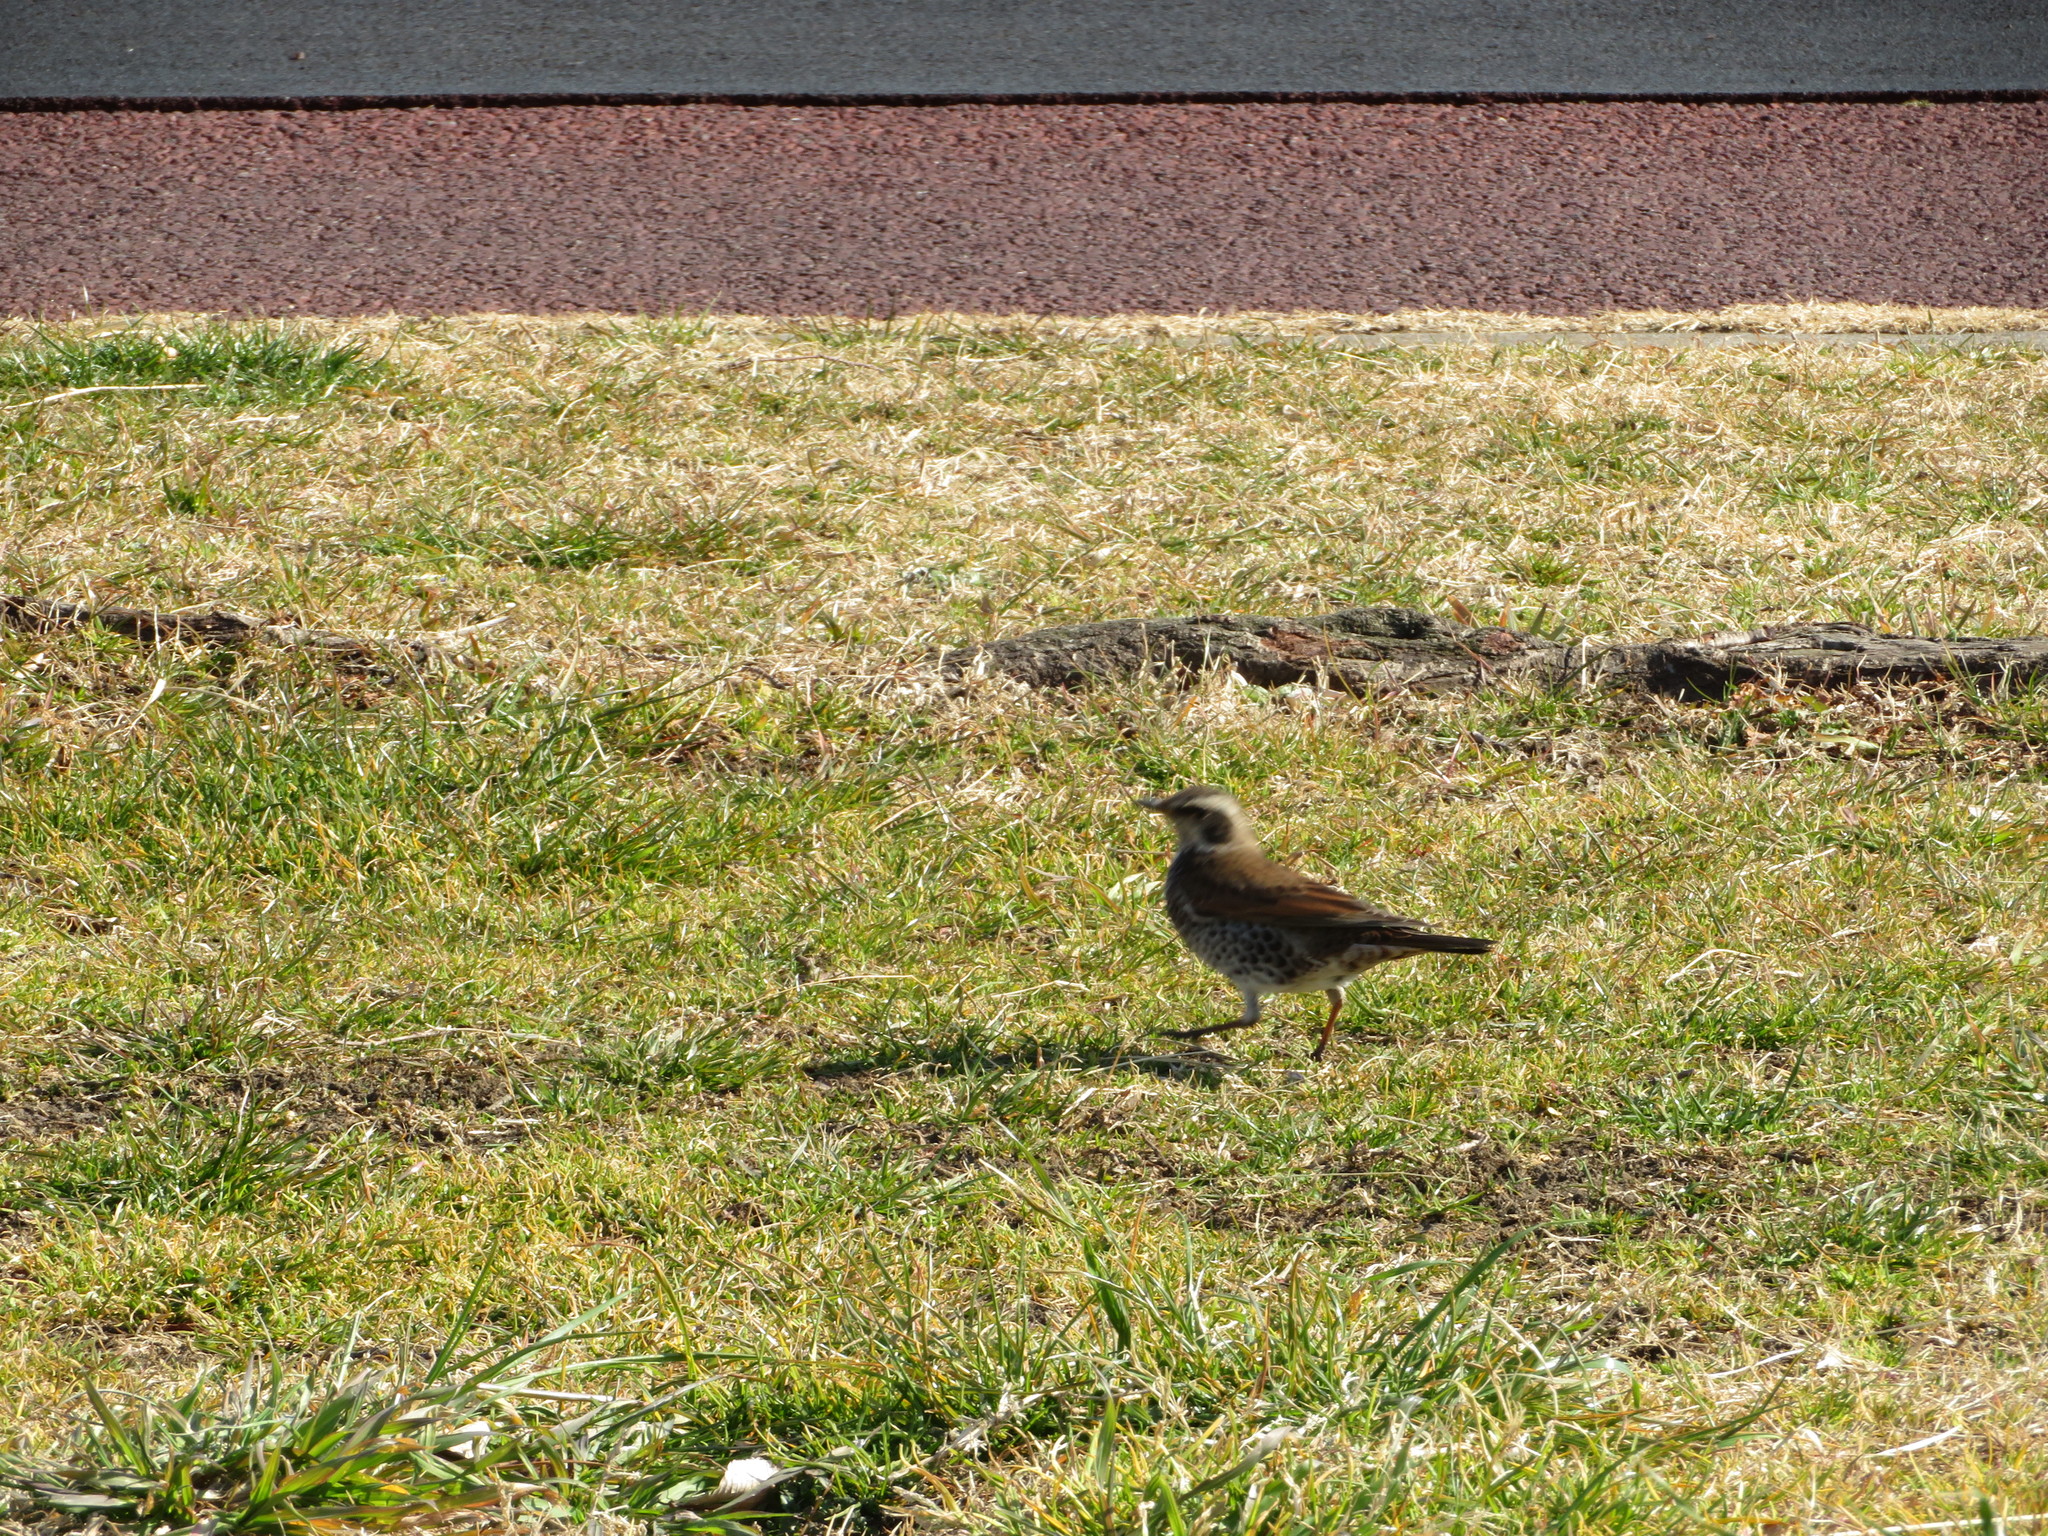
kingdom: Animalia
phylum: Chordata
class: Aves
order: Passeriformes
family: Turdidae
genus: Turdus
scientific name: Turdus eunomus
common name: Dusky thrush
